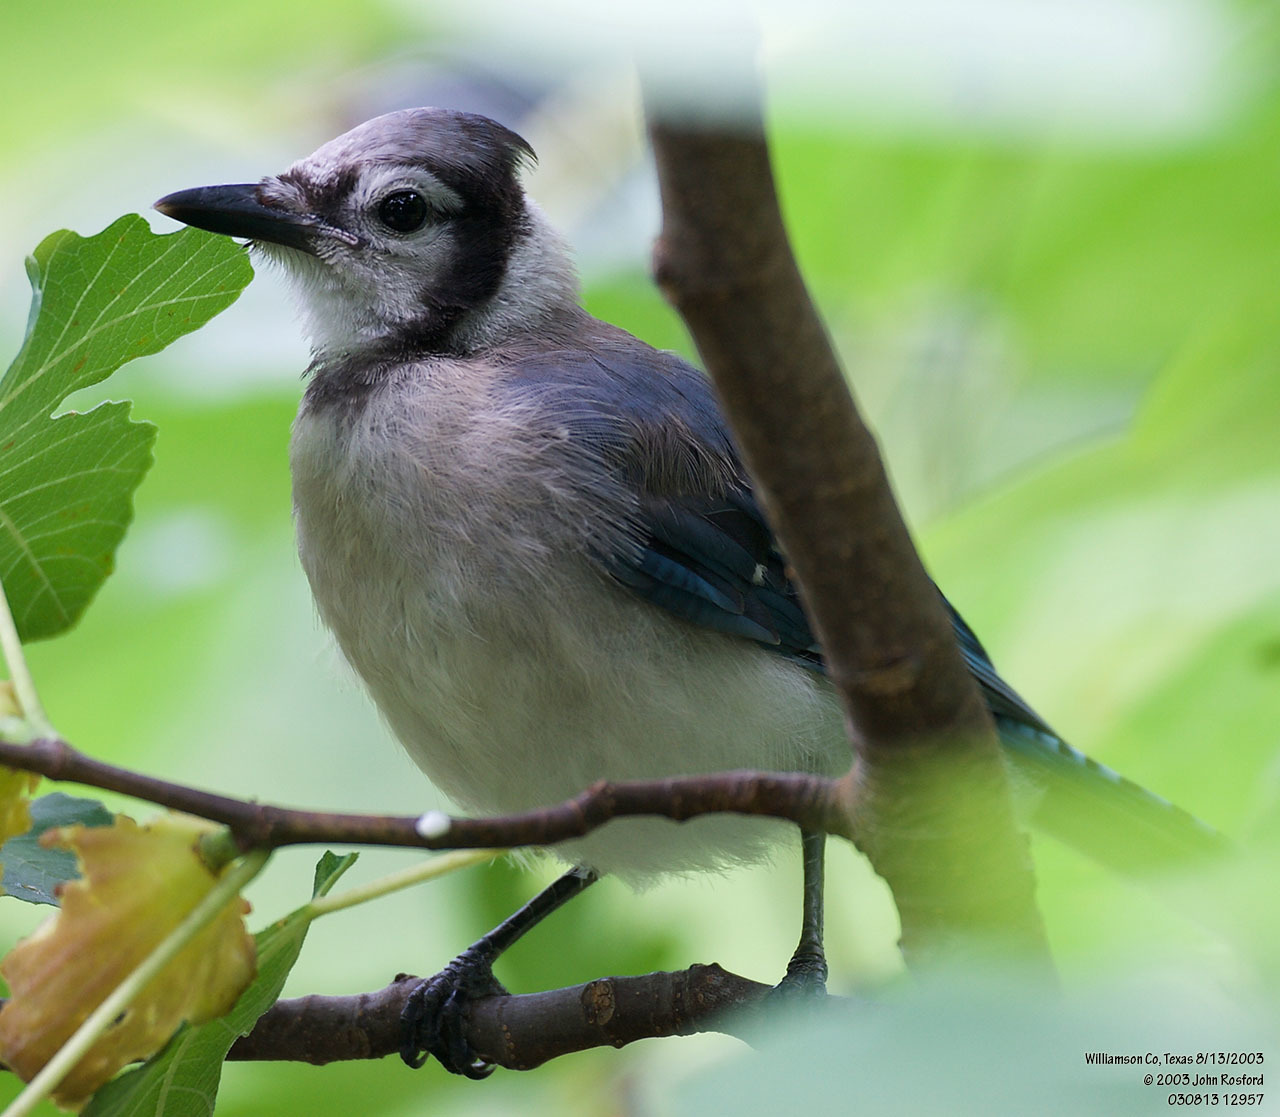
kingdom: Animalia
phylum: Chordata
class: Aves
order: Passeriformes
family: Corvidae
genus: Cyanocitta
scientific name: Cyanocitta cristata
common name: Blue jay
